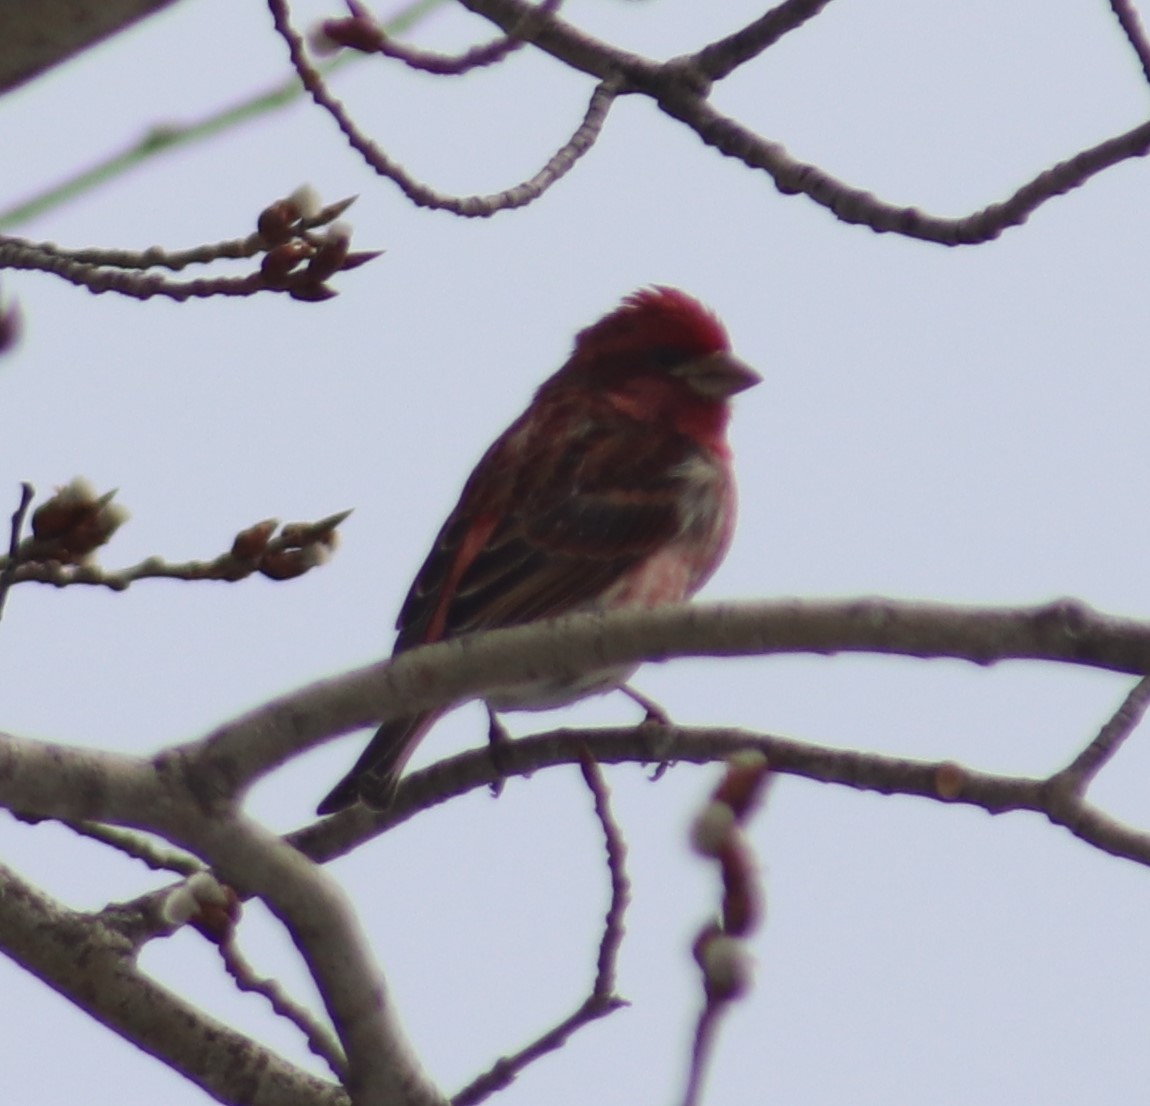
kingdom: Animalia
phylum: Chordata
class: Aves
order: Passeriformes
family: Fringillidae
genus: Haemorhous
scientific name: Haemorhous purpureus
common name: Purple finch
